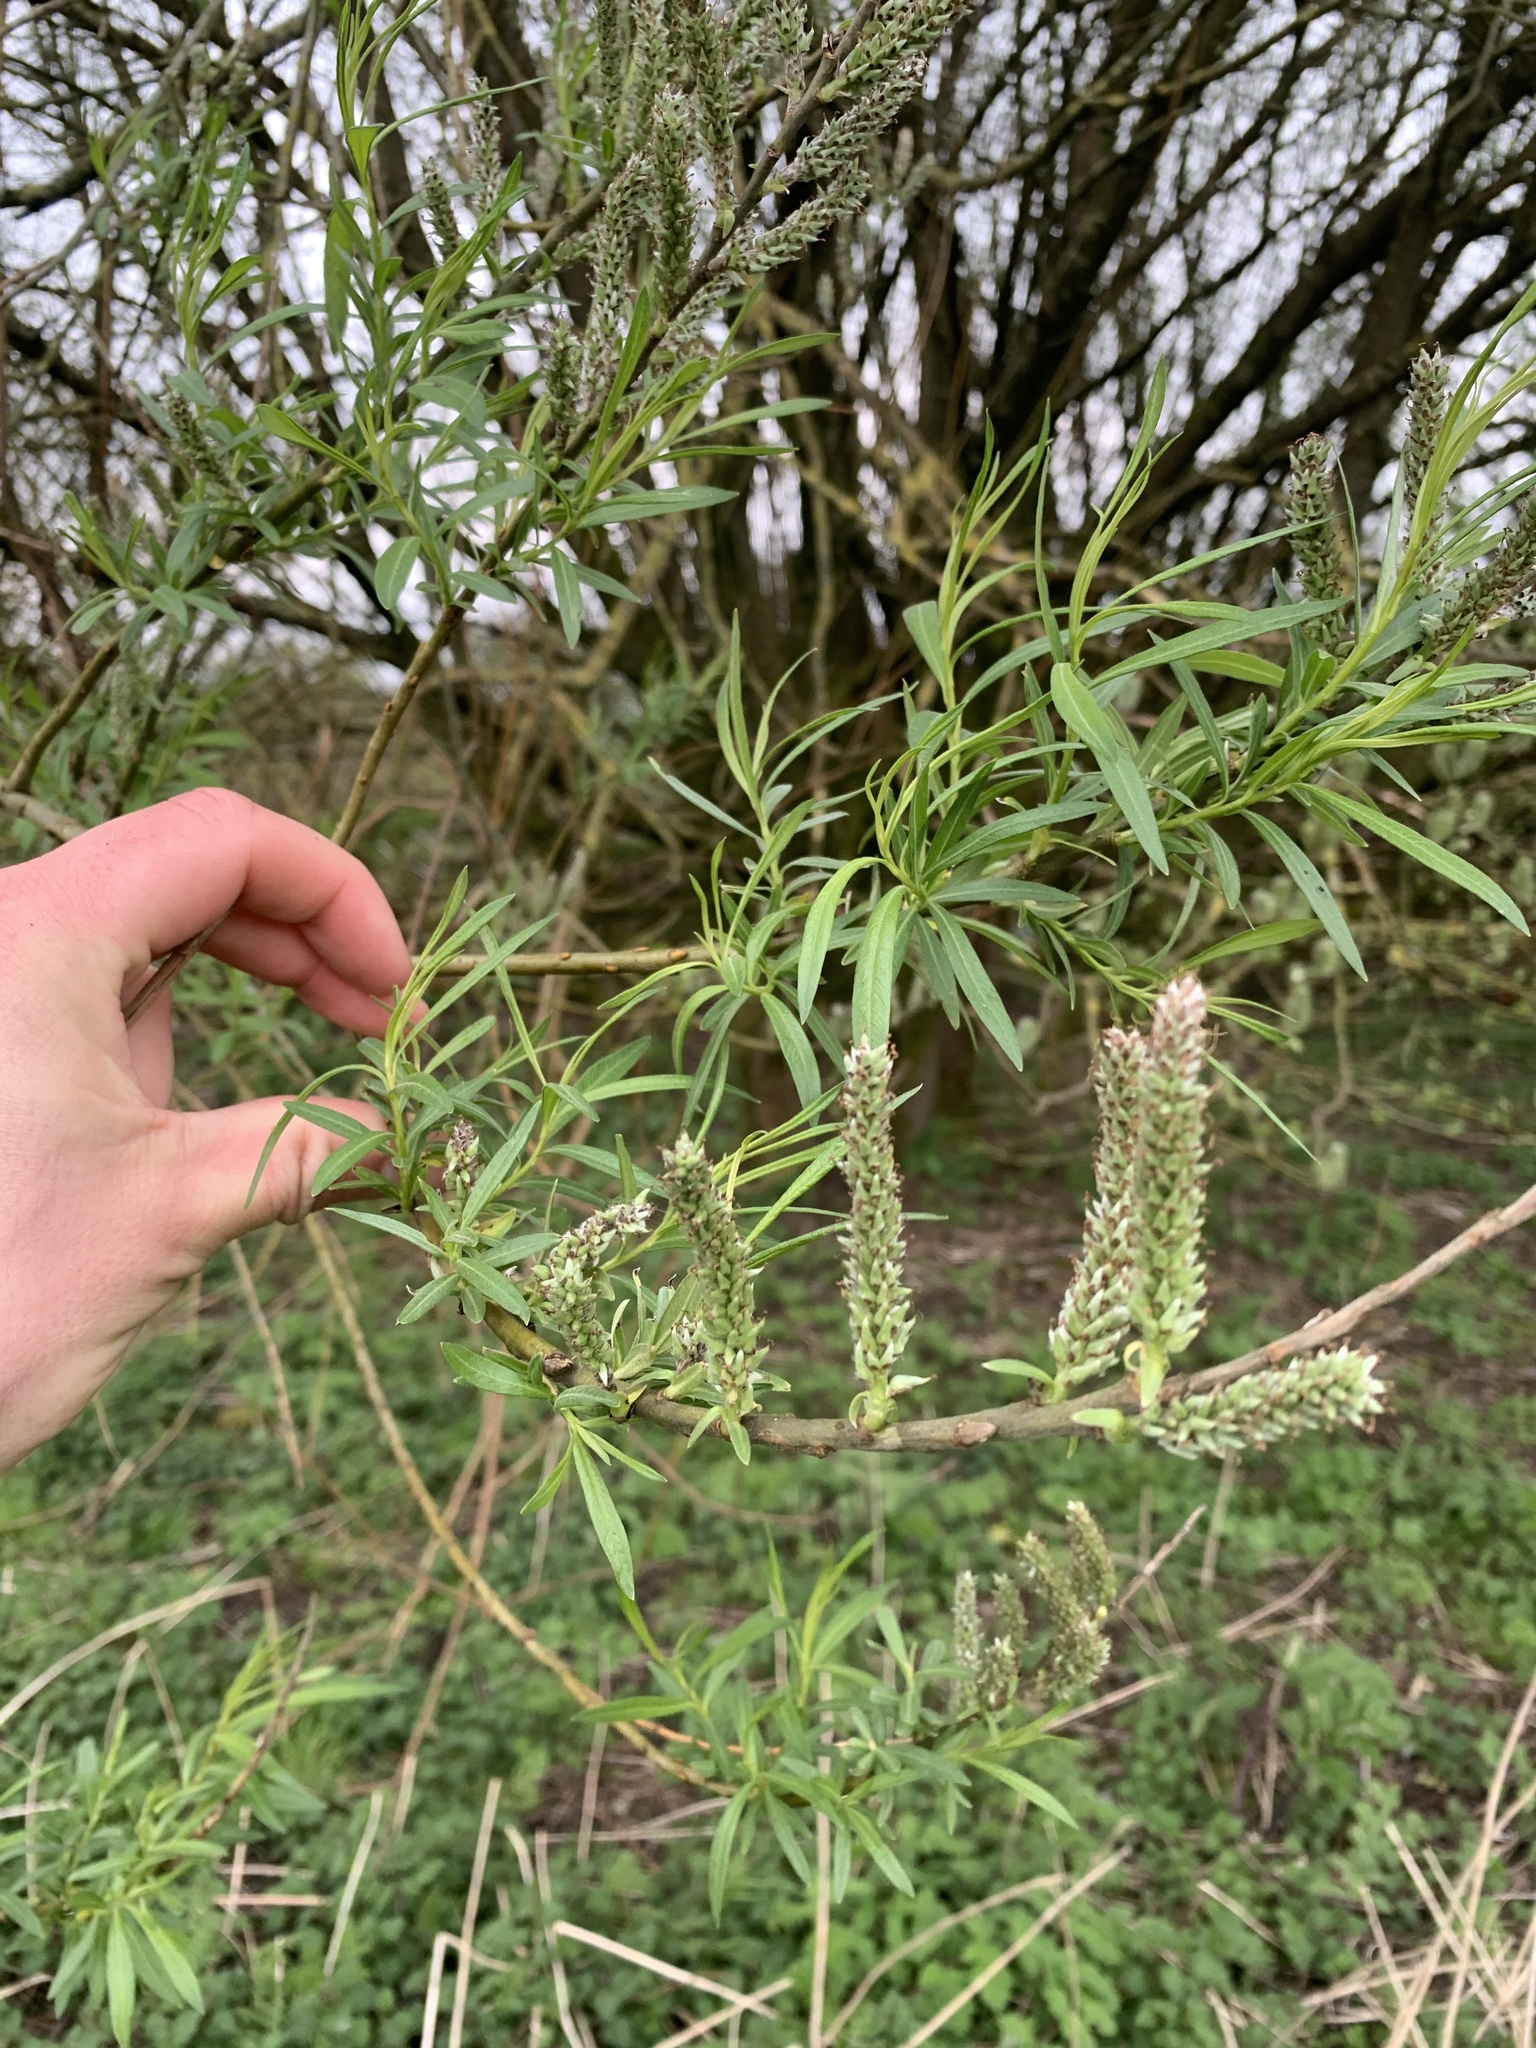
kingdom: Plantae
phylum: Tracheophyta
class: Magnoliopsida
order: Malpighiales
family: Salicaceae
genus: Salix
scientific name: Salix viminalis
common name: Osier
